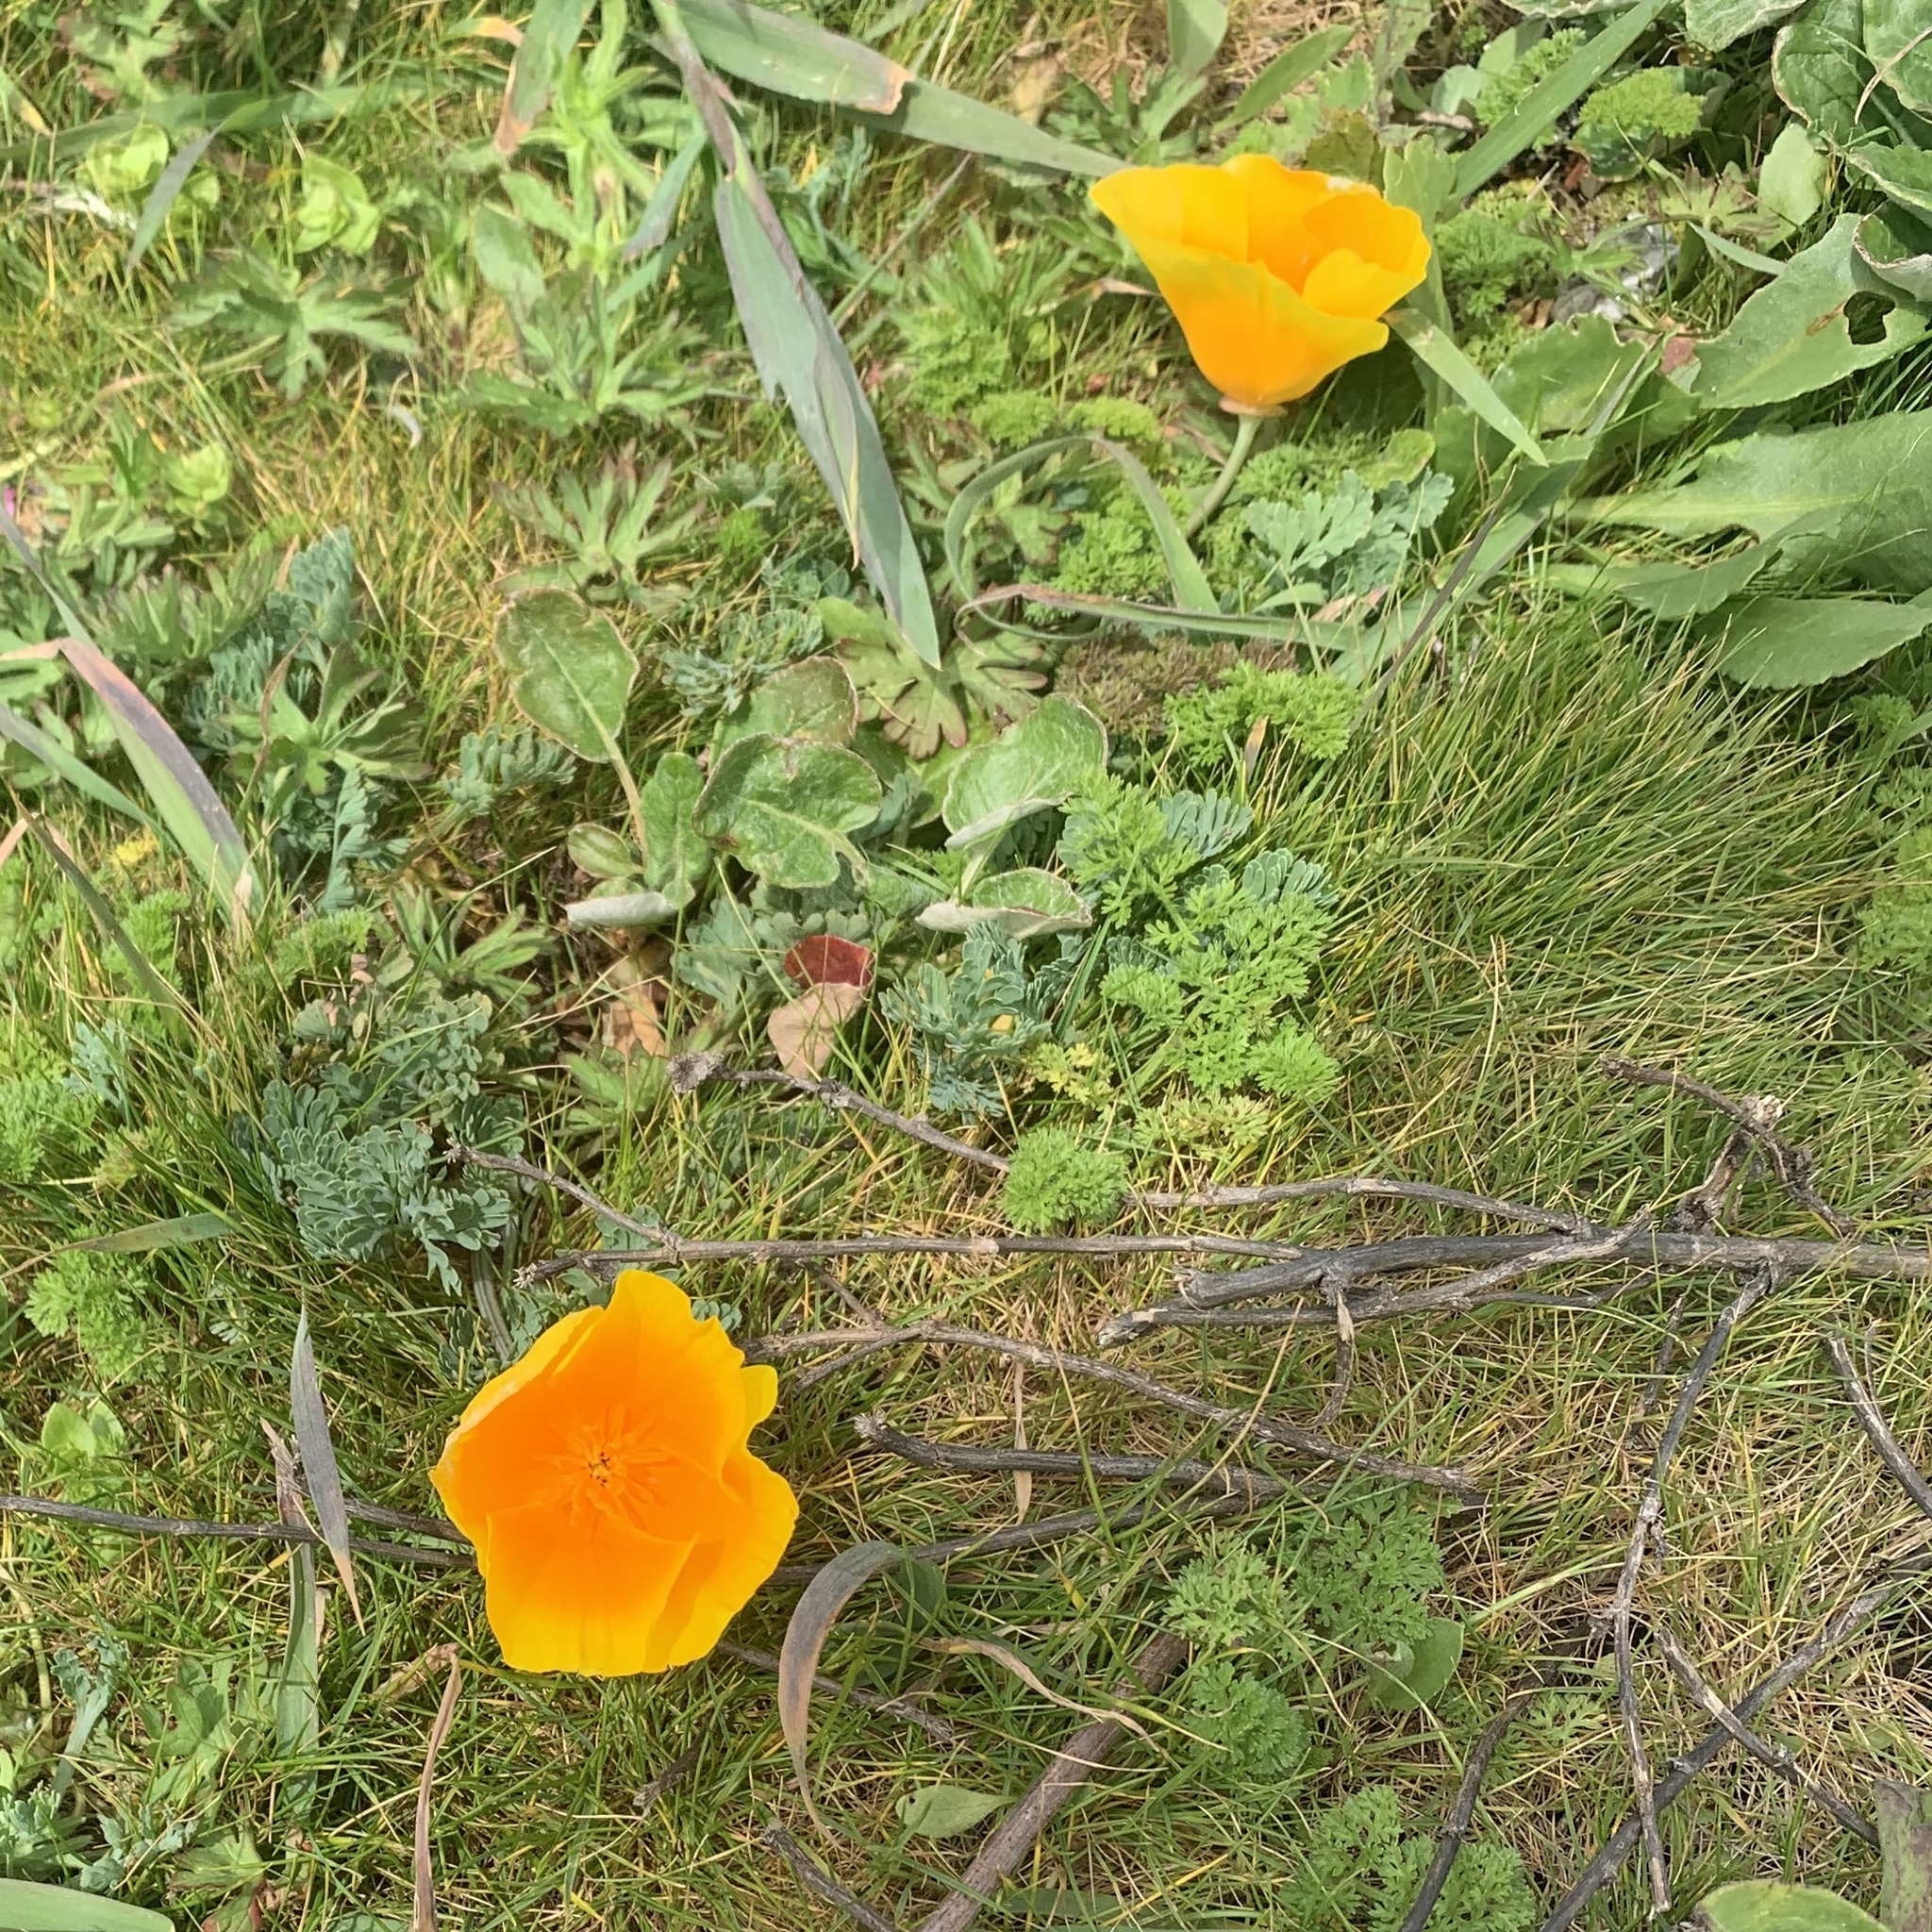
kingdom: Plantae
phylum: Tracheophyta
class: Magnoliopsida
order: Ranunculales
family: Papaveraceae
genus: Eschscholzia
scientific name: Eschscholzia californica
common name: California poppy
